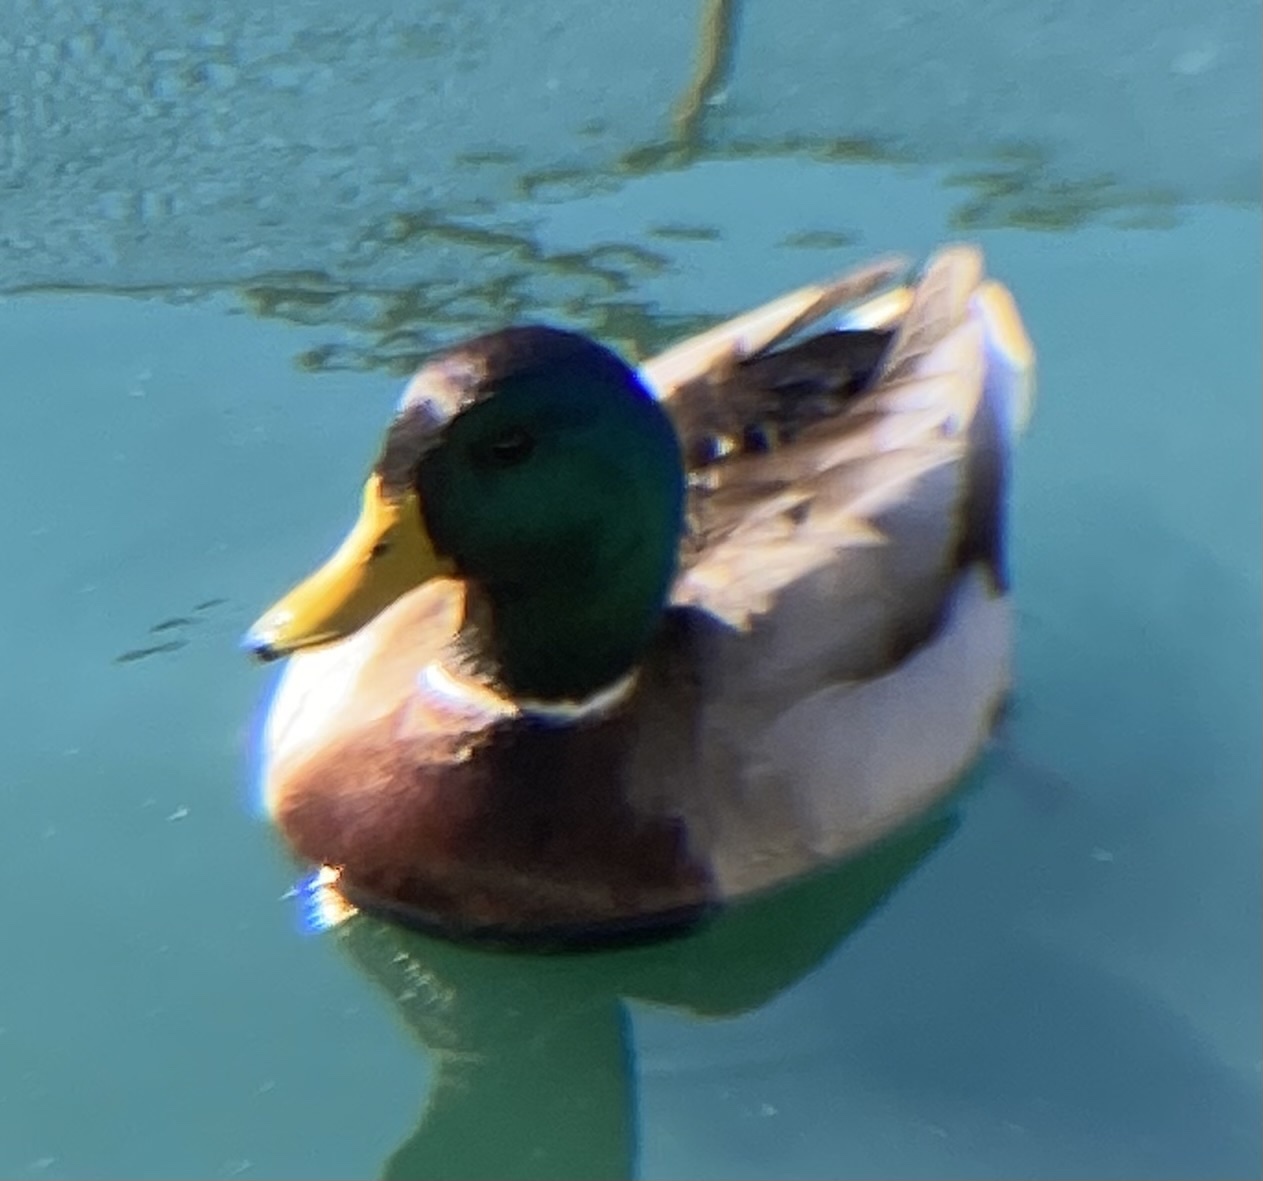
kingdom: Animalia
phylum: Chordata
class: Aves
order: Anseriformes
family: Anatidae
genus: Anas
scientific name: Anas platyrhynchos
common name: Mallard
